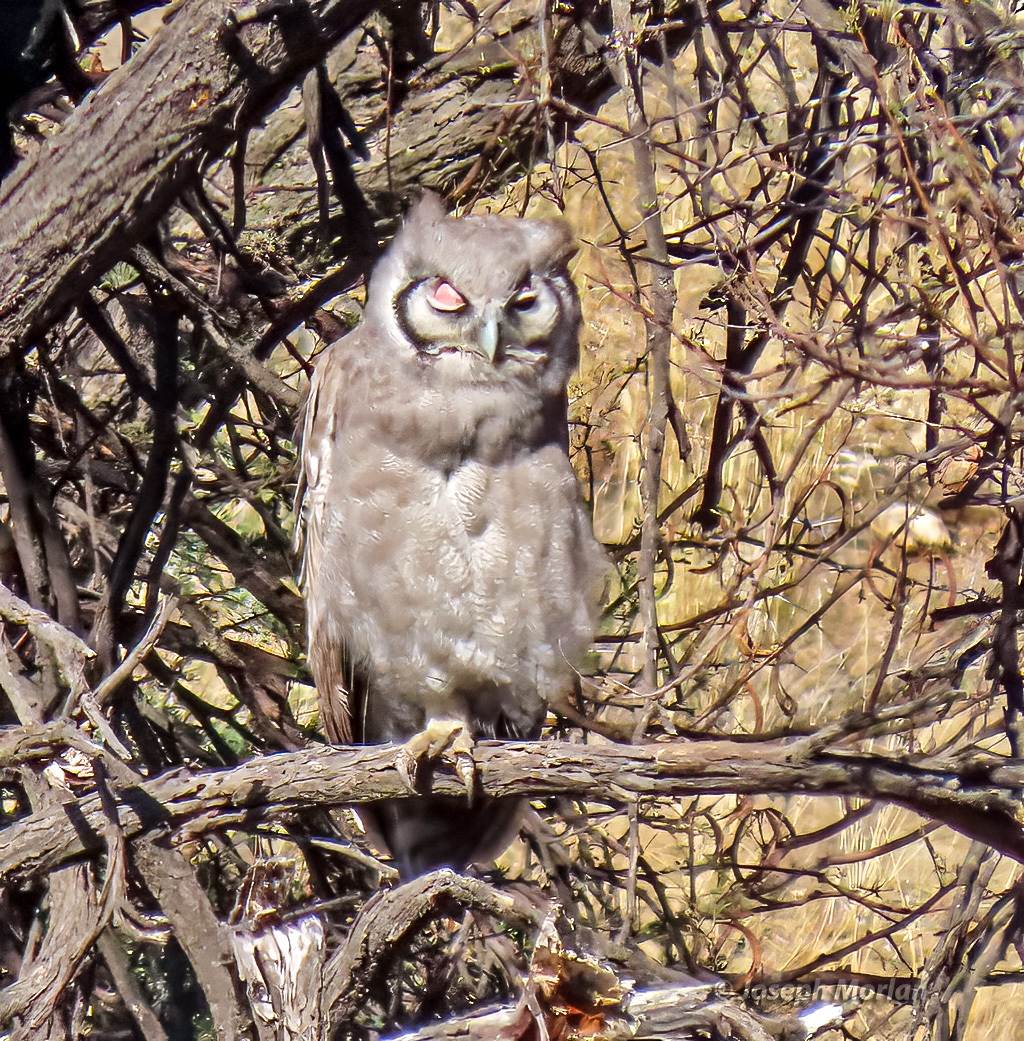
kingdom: Animalia
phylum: Chordata
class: Aves
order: Strigiformes
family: Strigidae
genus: Bubo
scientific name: Bubo lacteus
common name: Verreaux's eagle-owl
